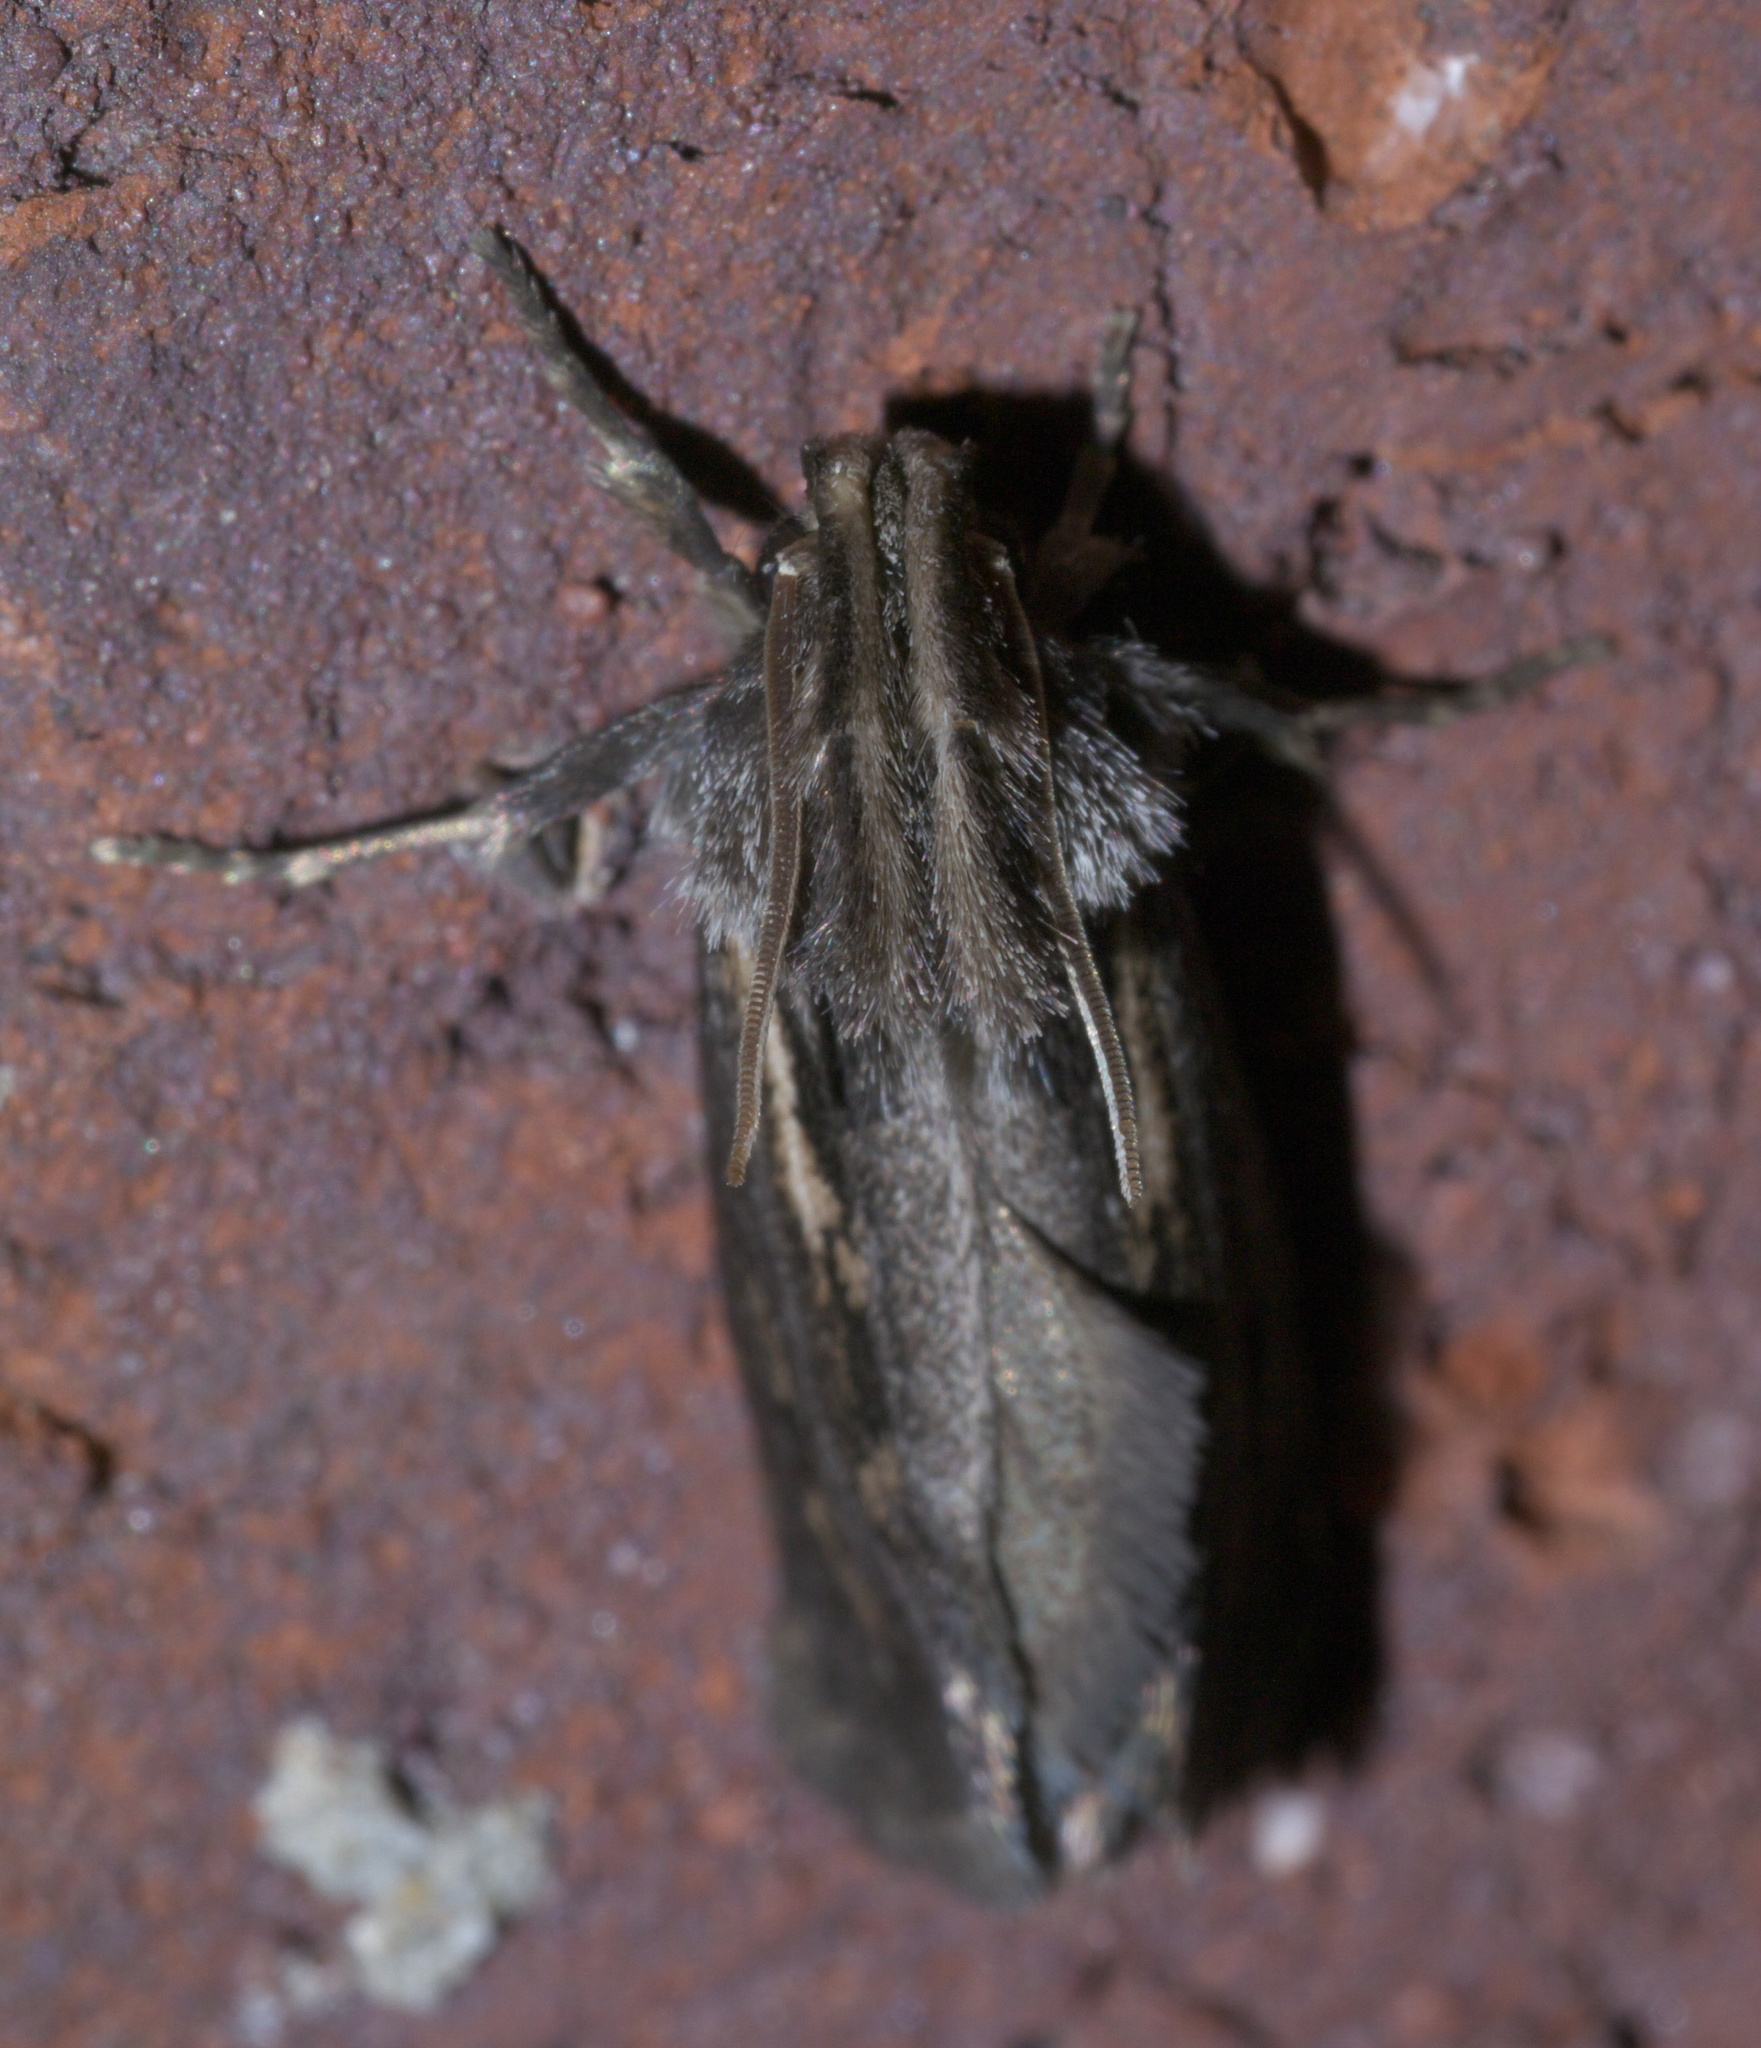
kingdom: Animalia
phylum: Arthropoda
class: Insecta
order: Lepidoptera
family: Tineidae
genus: Acrolophus
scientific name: Acrolophus popeanella
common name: Clemens' grass tubeworm moth
